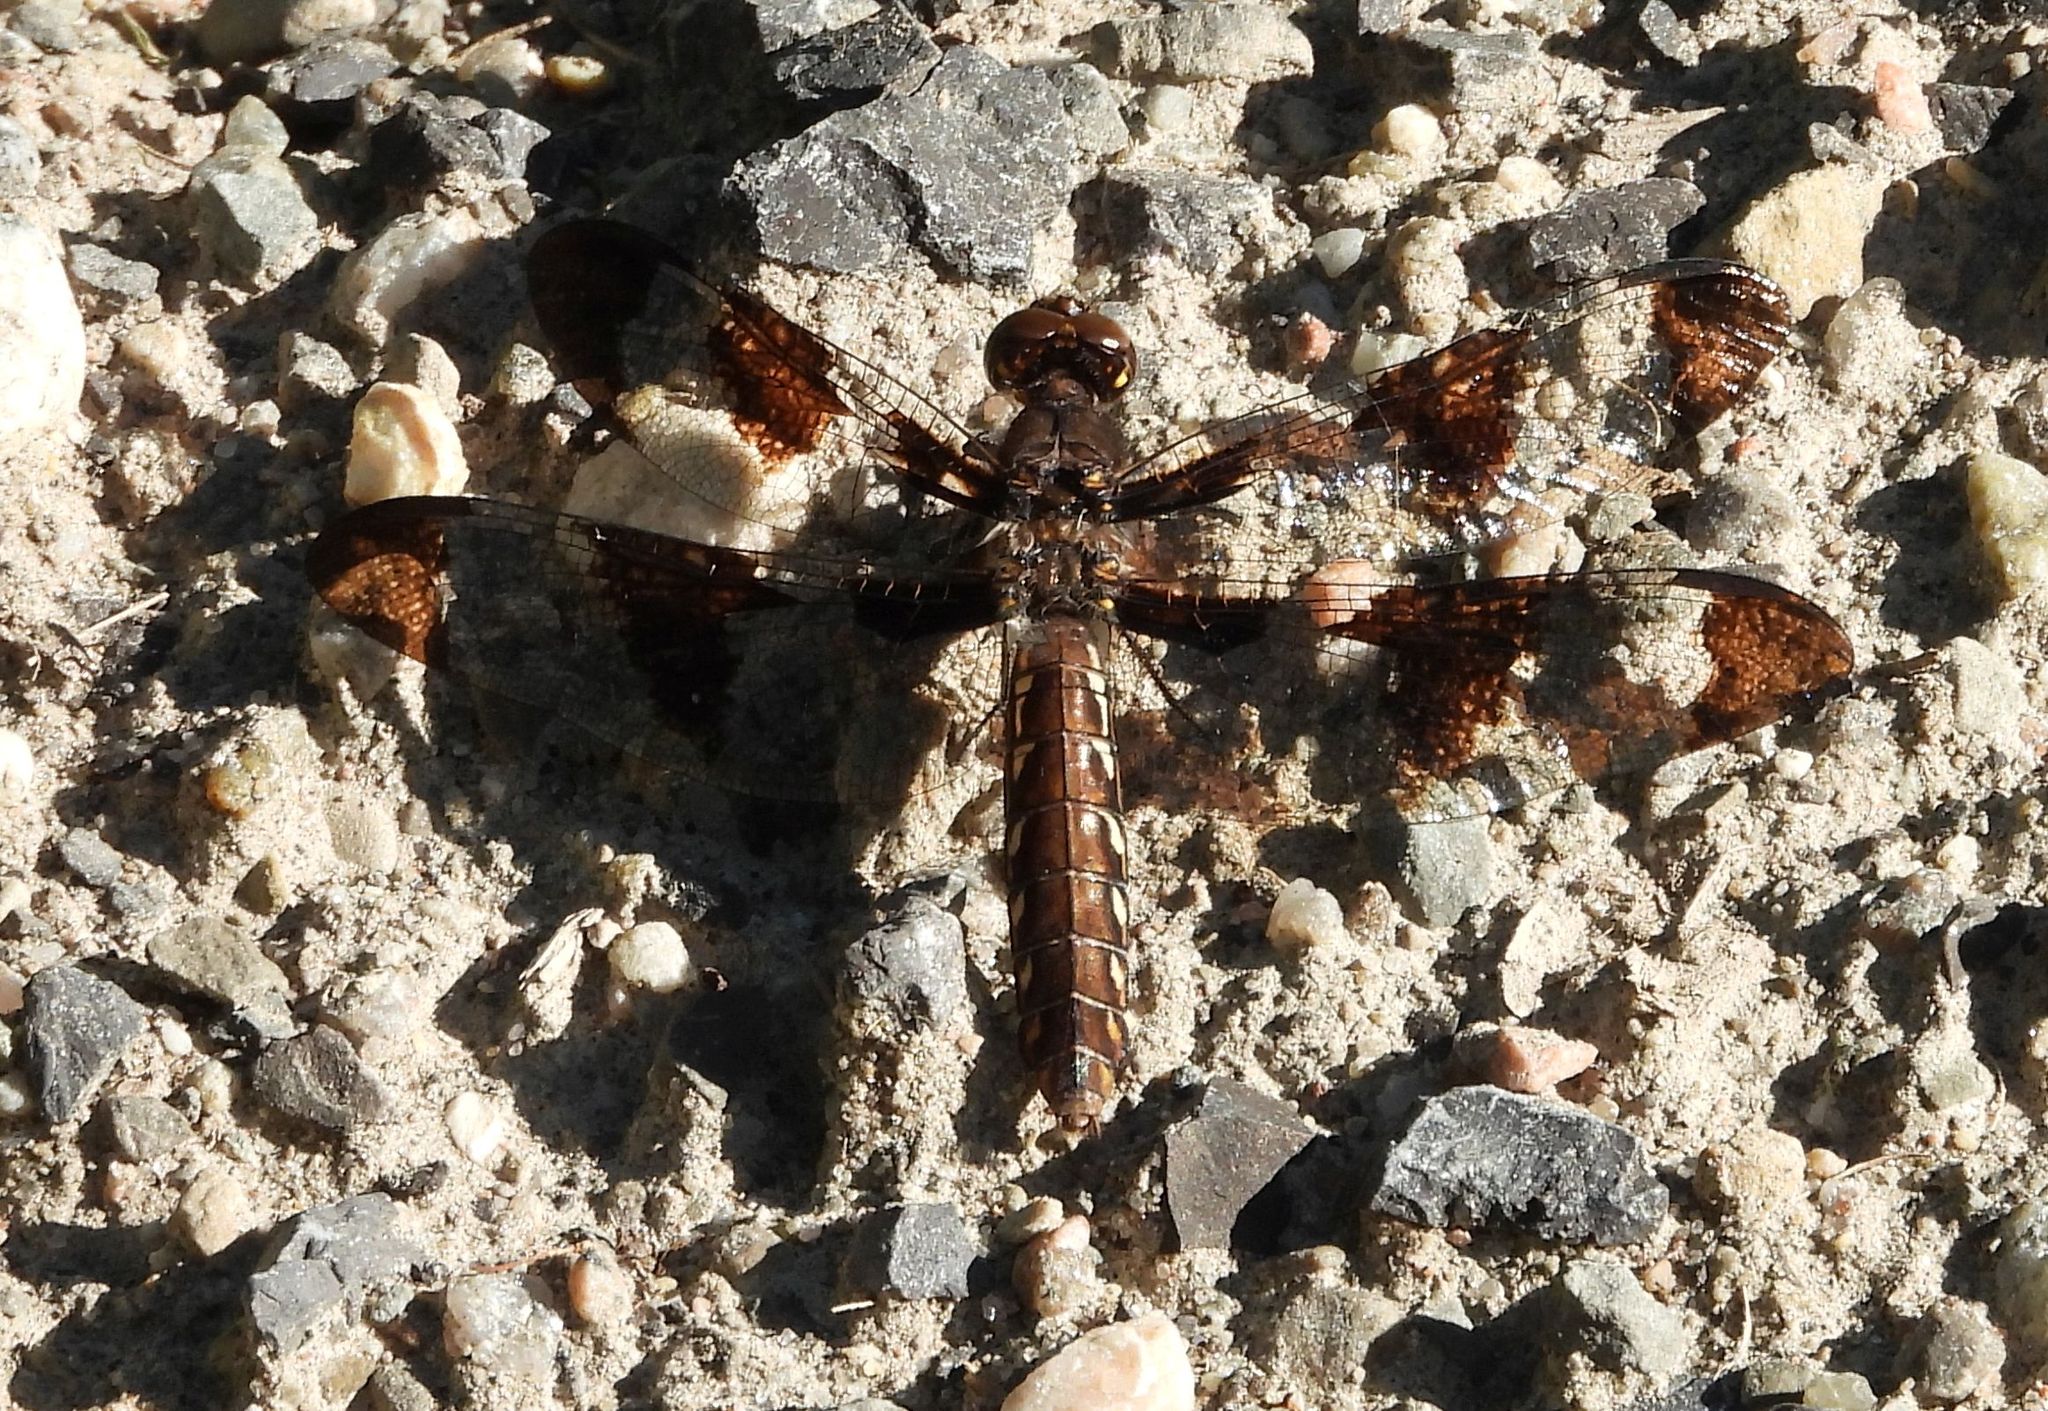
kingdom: Animalia
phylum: Arthropoda
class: Insecta
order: Odonata
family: Libellulidae
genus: Plathemis
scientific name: Plathemis lydia
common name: Common whitetail
